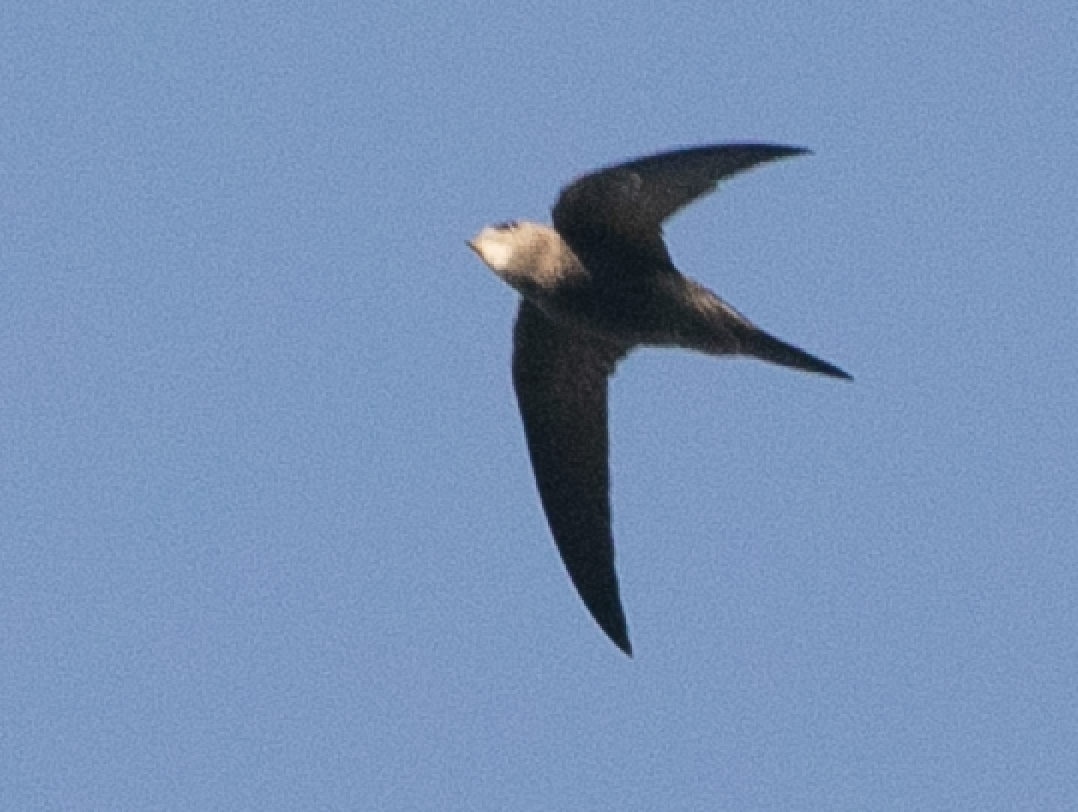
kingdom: Animalia
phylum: Chordata
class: Aves
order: Apodiformes
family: Apodidae
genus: Apus
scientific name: Apus pallidus
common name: Pallid swift
